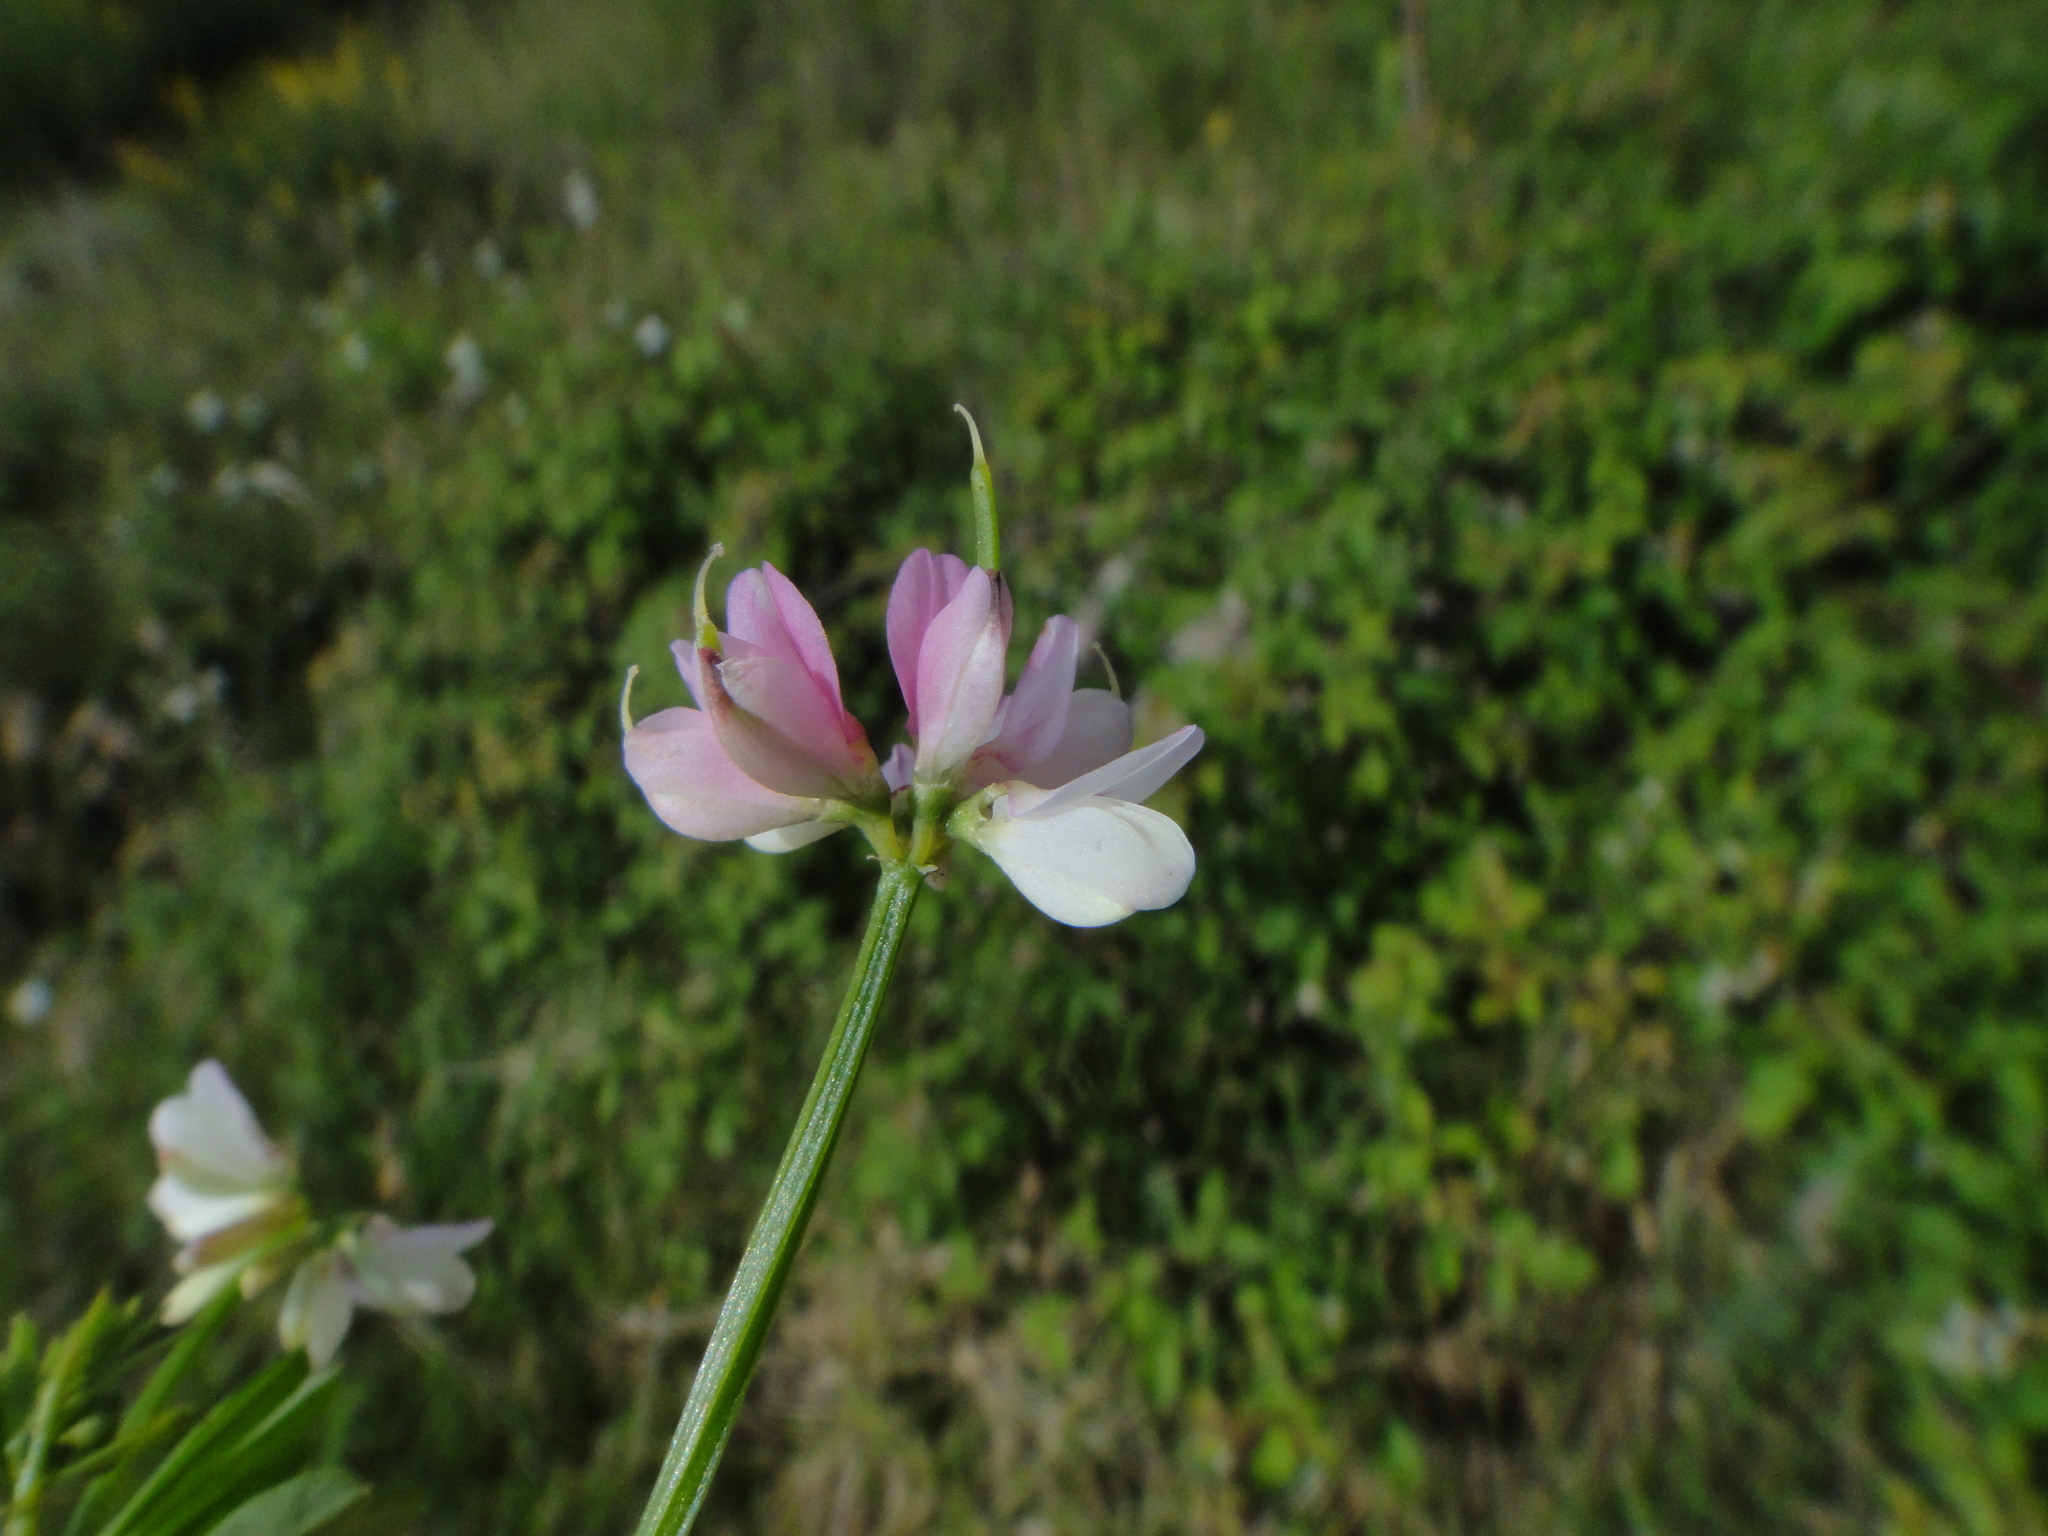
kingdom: Plantae
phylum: Tracheophyta
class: Magnoliopsida
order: Fabales
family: Fabaceae
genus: Coronilla
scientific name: Coronilla cretica
